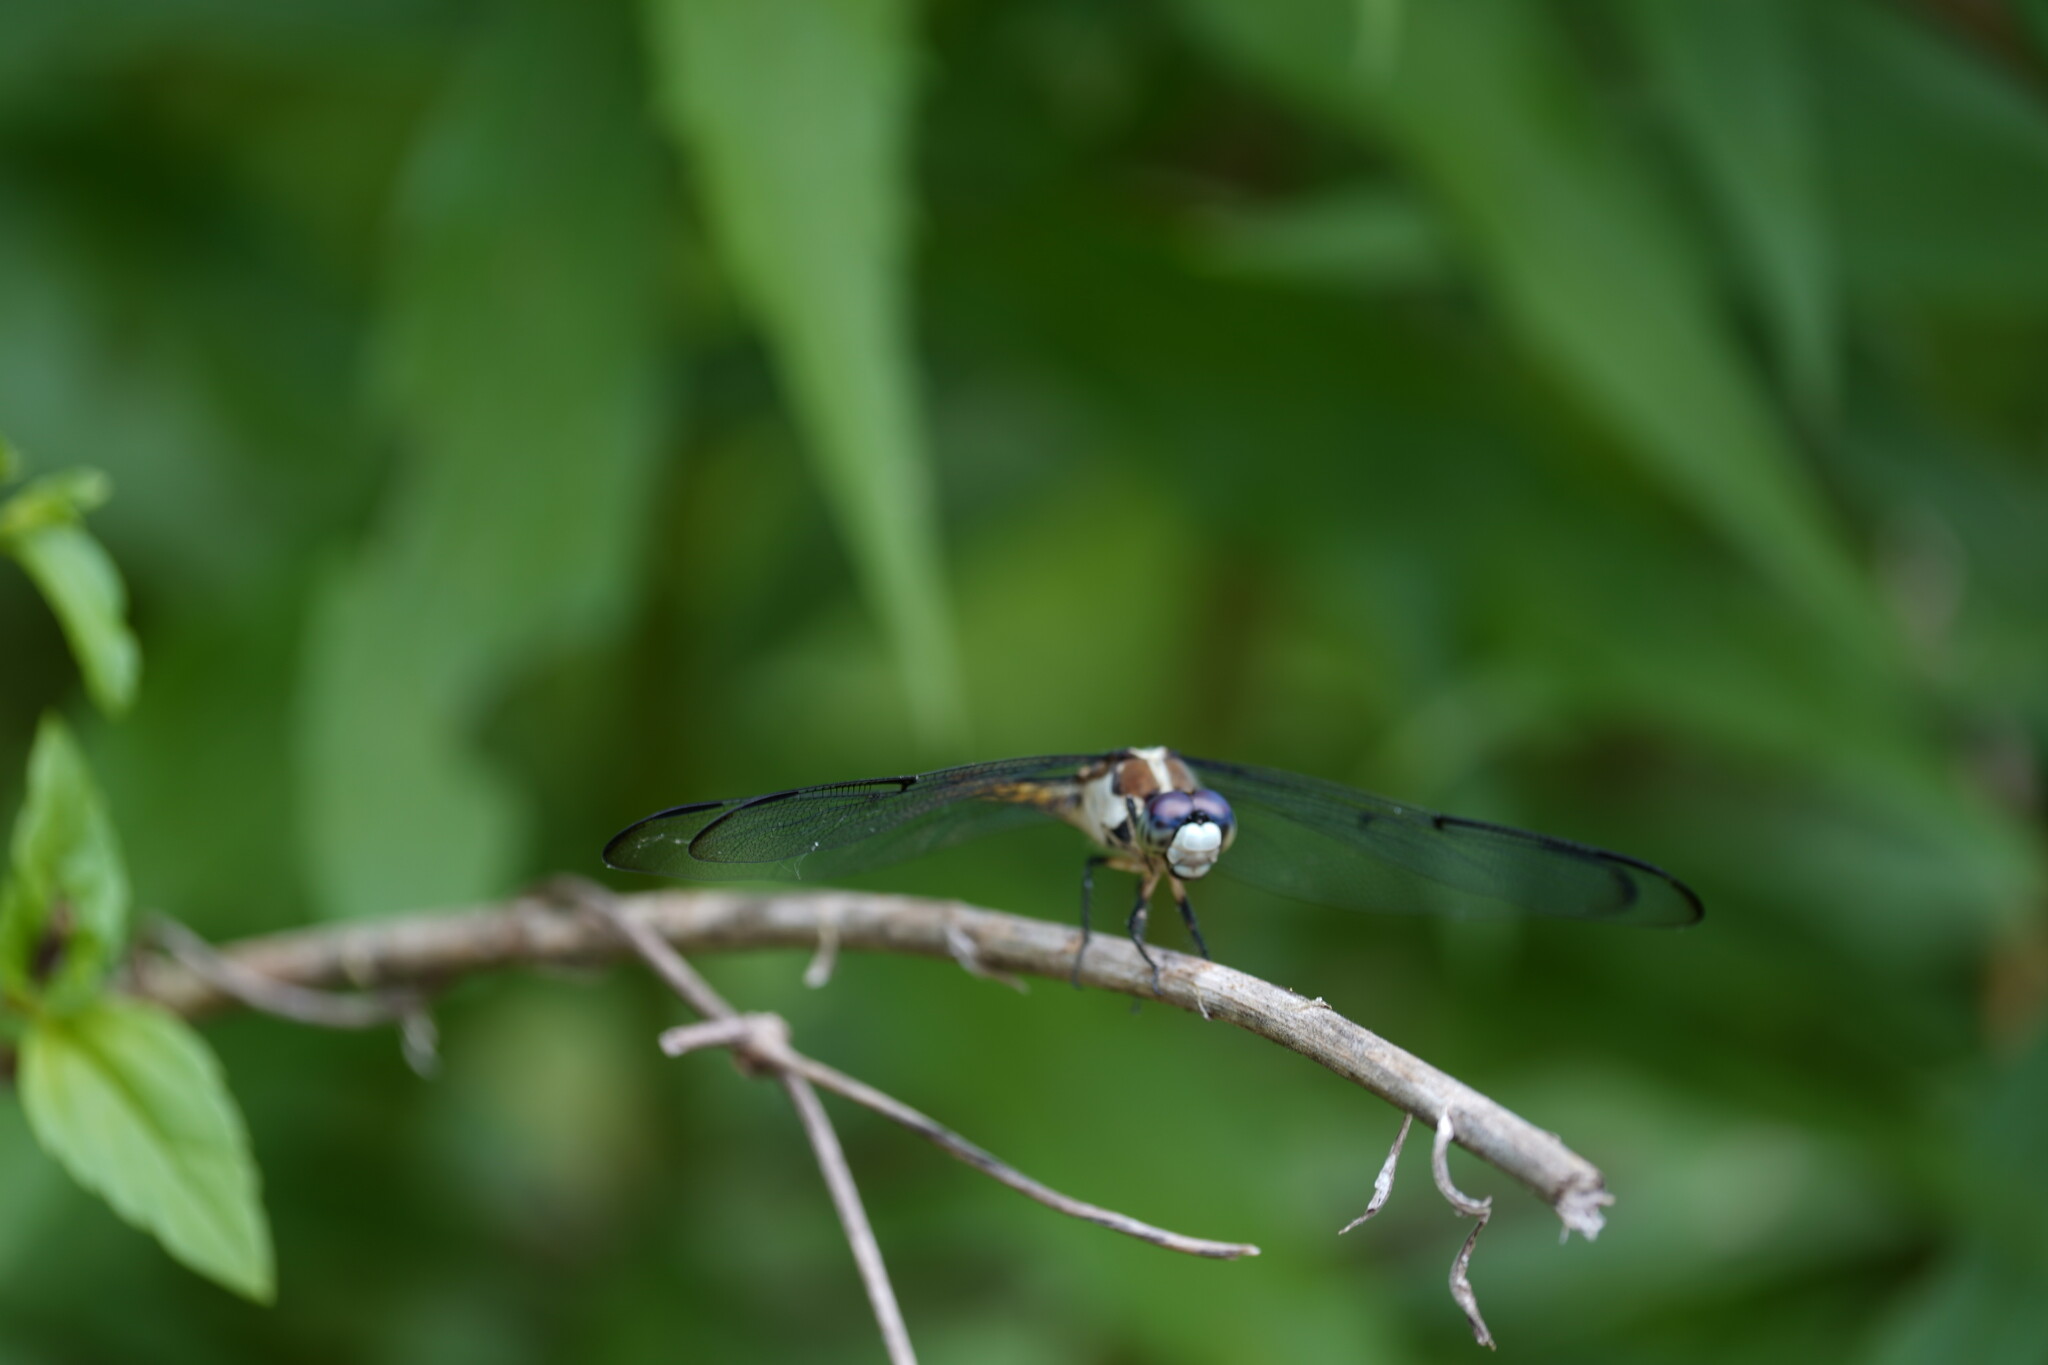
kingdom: Animalia
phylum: Arthropoda
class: Insecta
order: Odonata
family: Libellulidae
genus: Libellula
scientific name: Libellula vibrans
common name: Great blue skimmer
